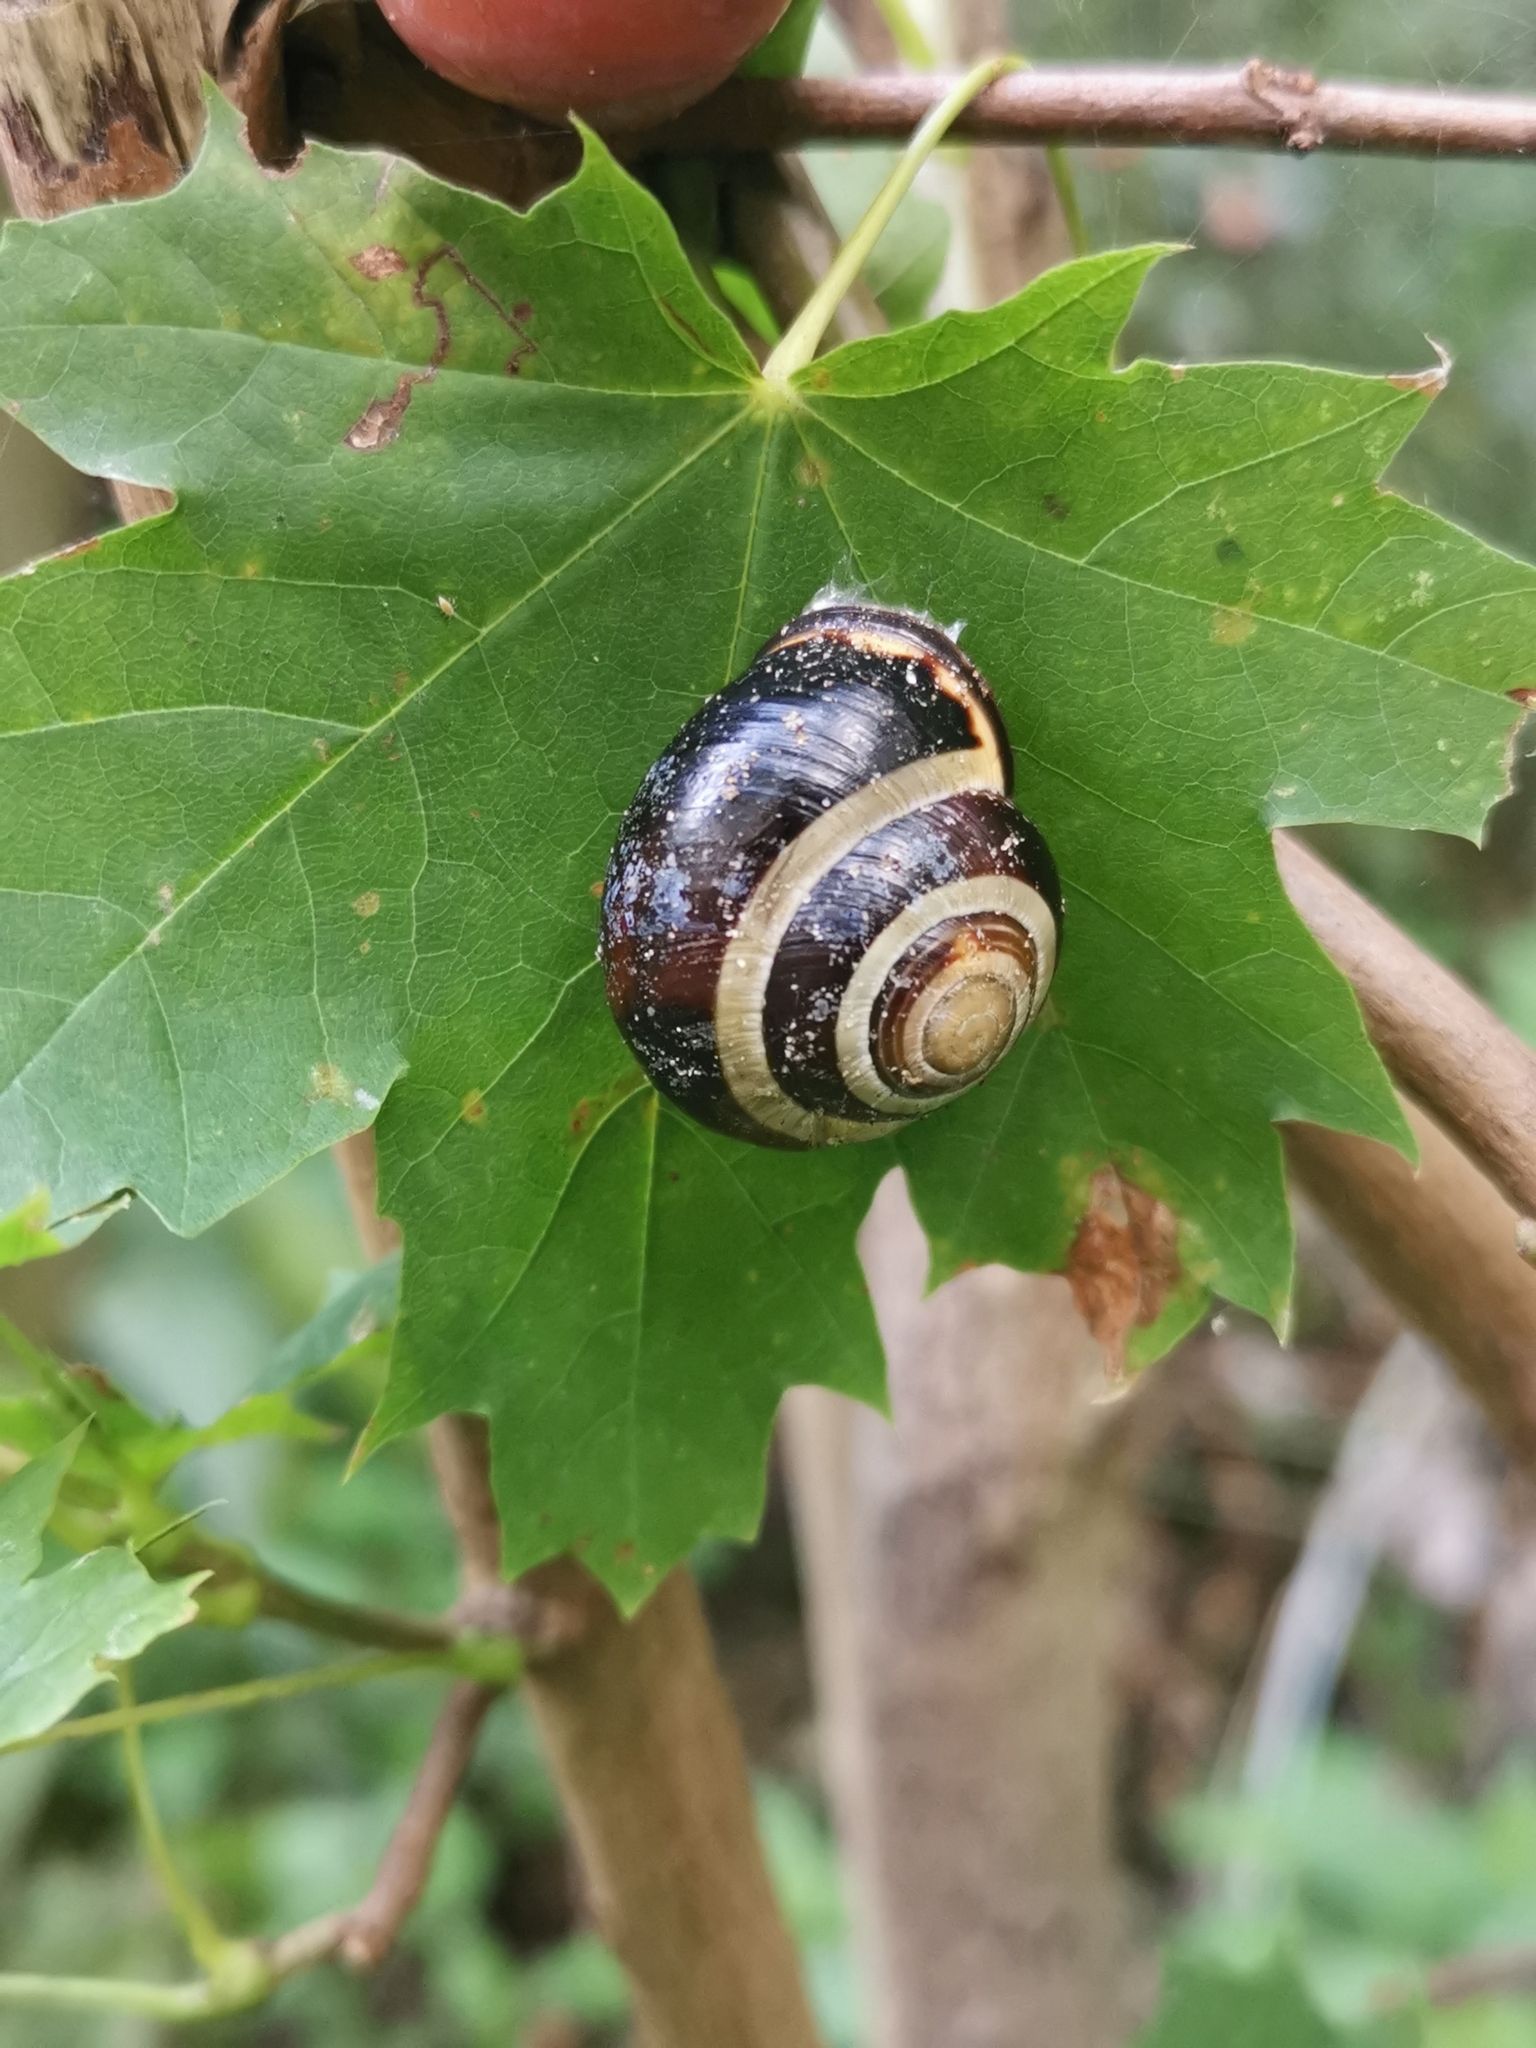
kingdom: Animalia
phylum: Mollusca
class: Gastropoda
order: Stylommatophora
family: Helicidae
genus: Cepaea
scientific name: Cepaea nemoralis
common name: Grovesnail
